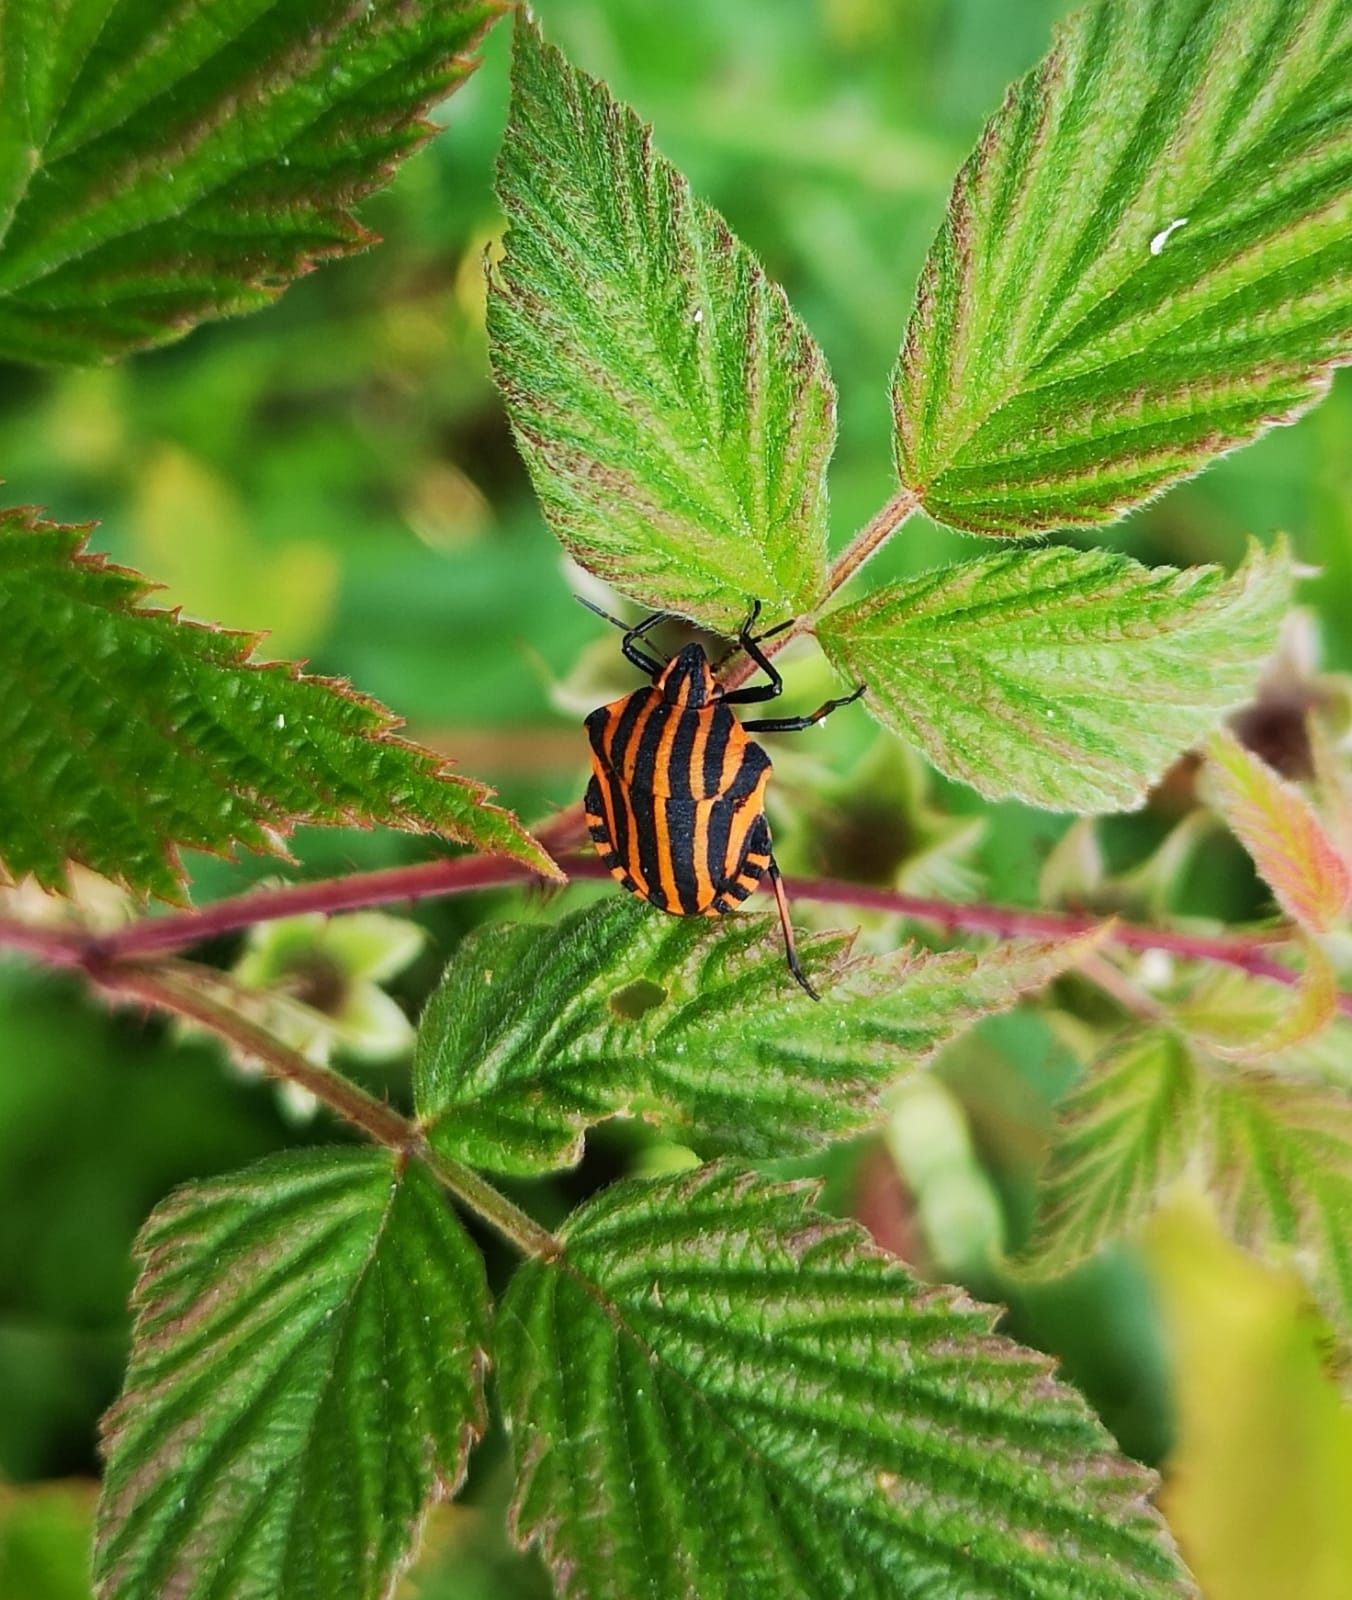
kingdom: Animalia
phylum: Arthropoda
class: Insecta
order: Hemiptera
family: Pentatomidae
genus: Graphosoma
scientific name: Graphosoma italicum
